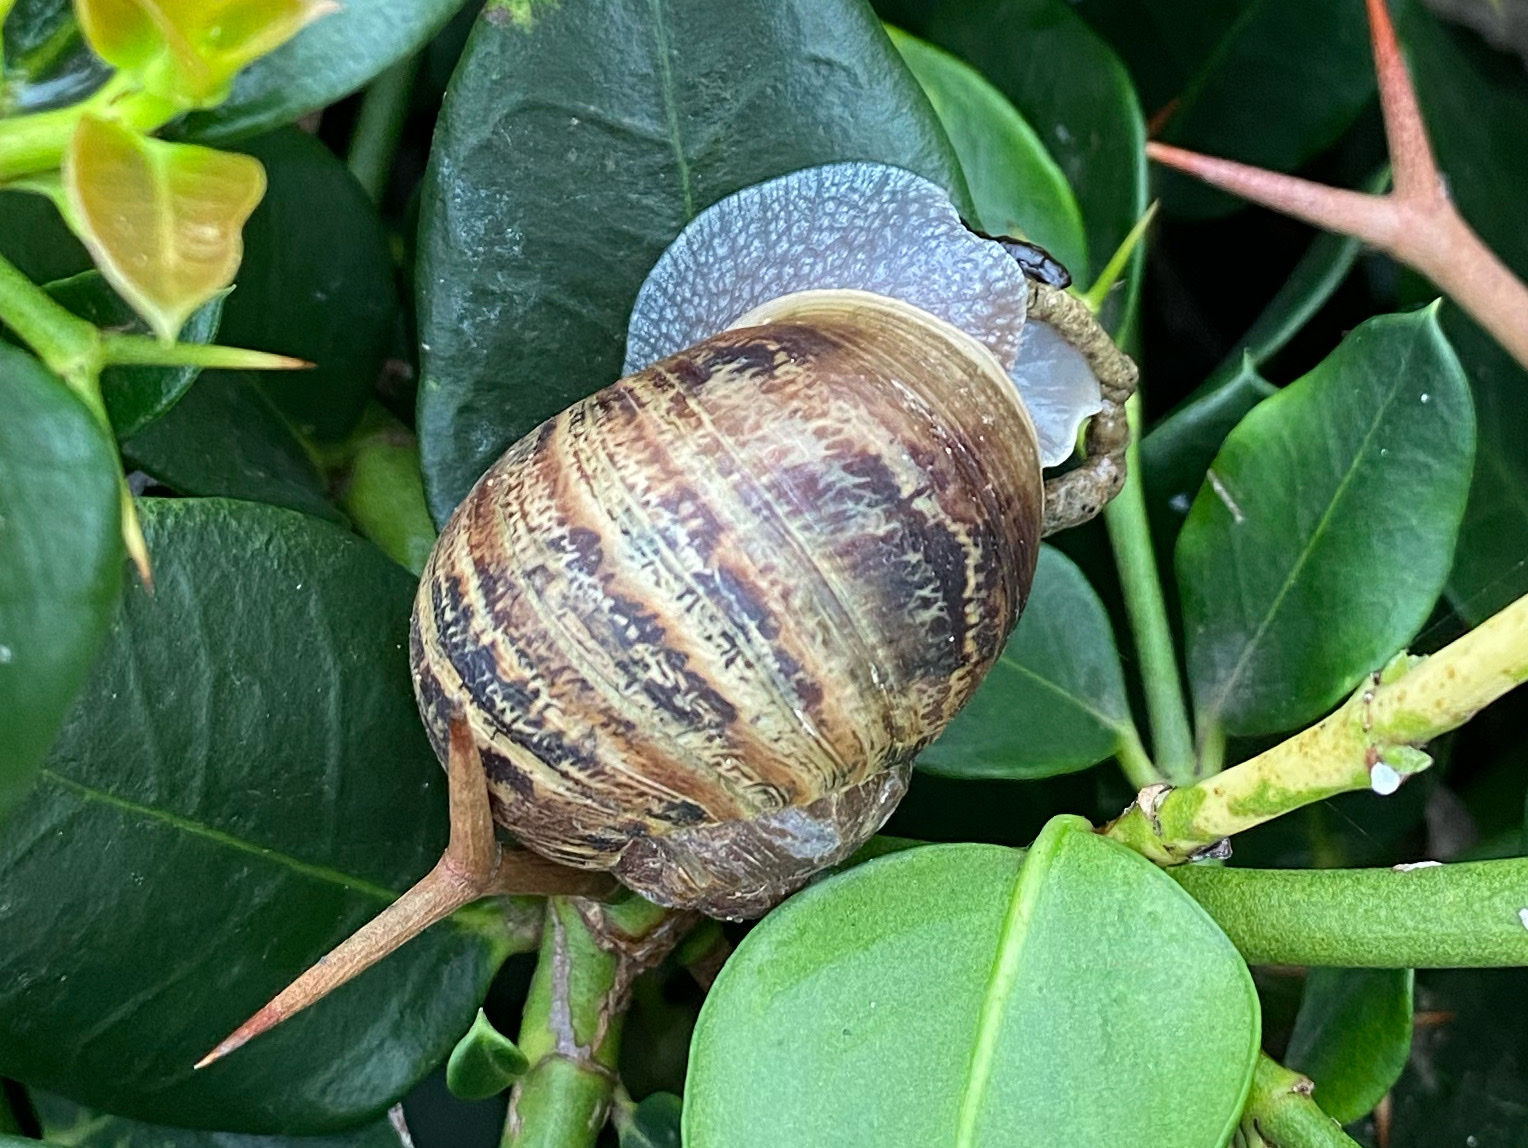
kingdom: Animalia
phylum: Mollusca
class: Gastropoda
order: Stylommatophora
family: Helicidae
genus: Cornu
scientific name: Cornu aspersum
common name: Brown garden snail
